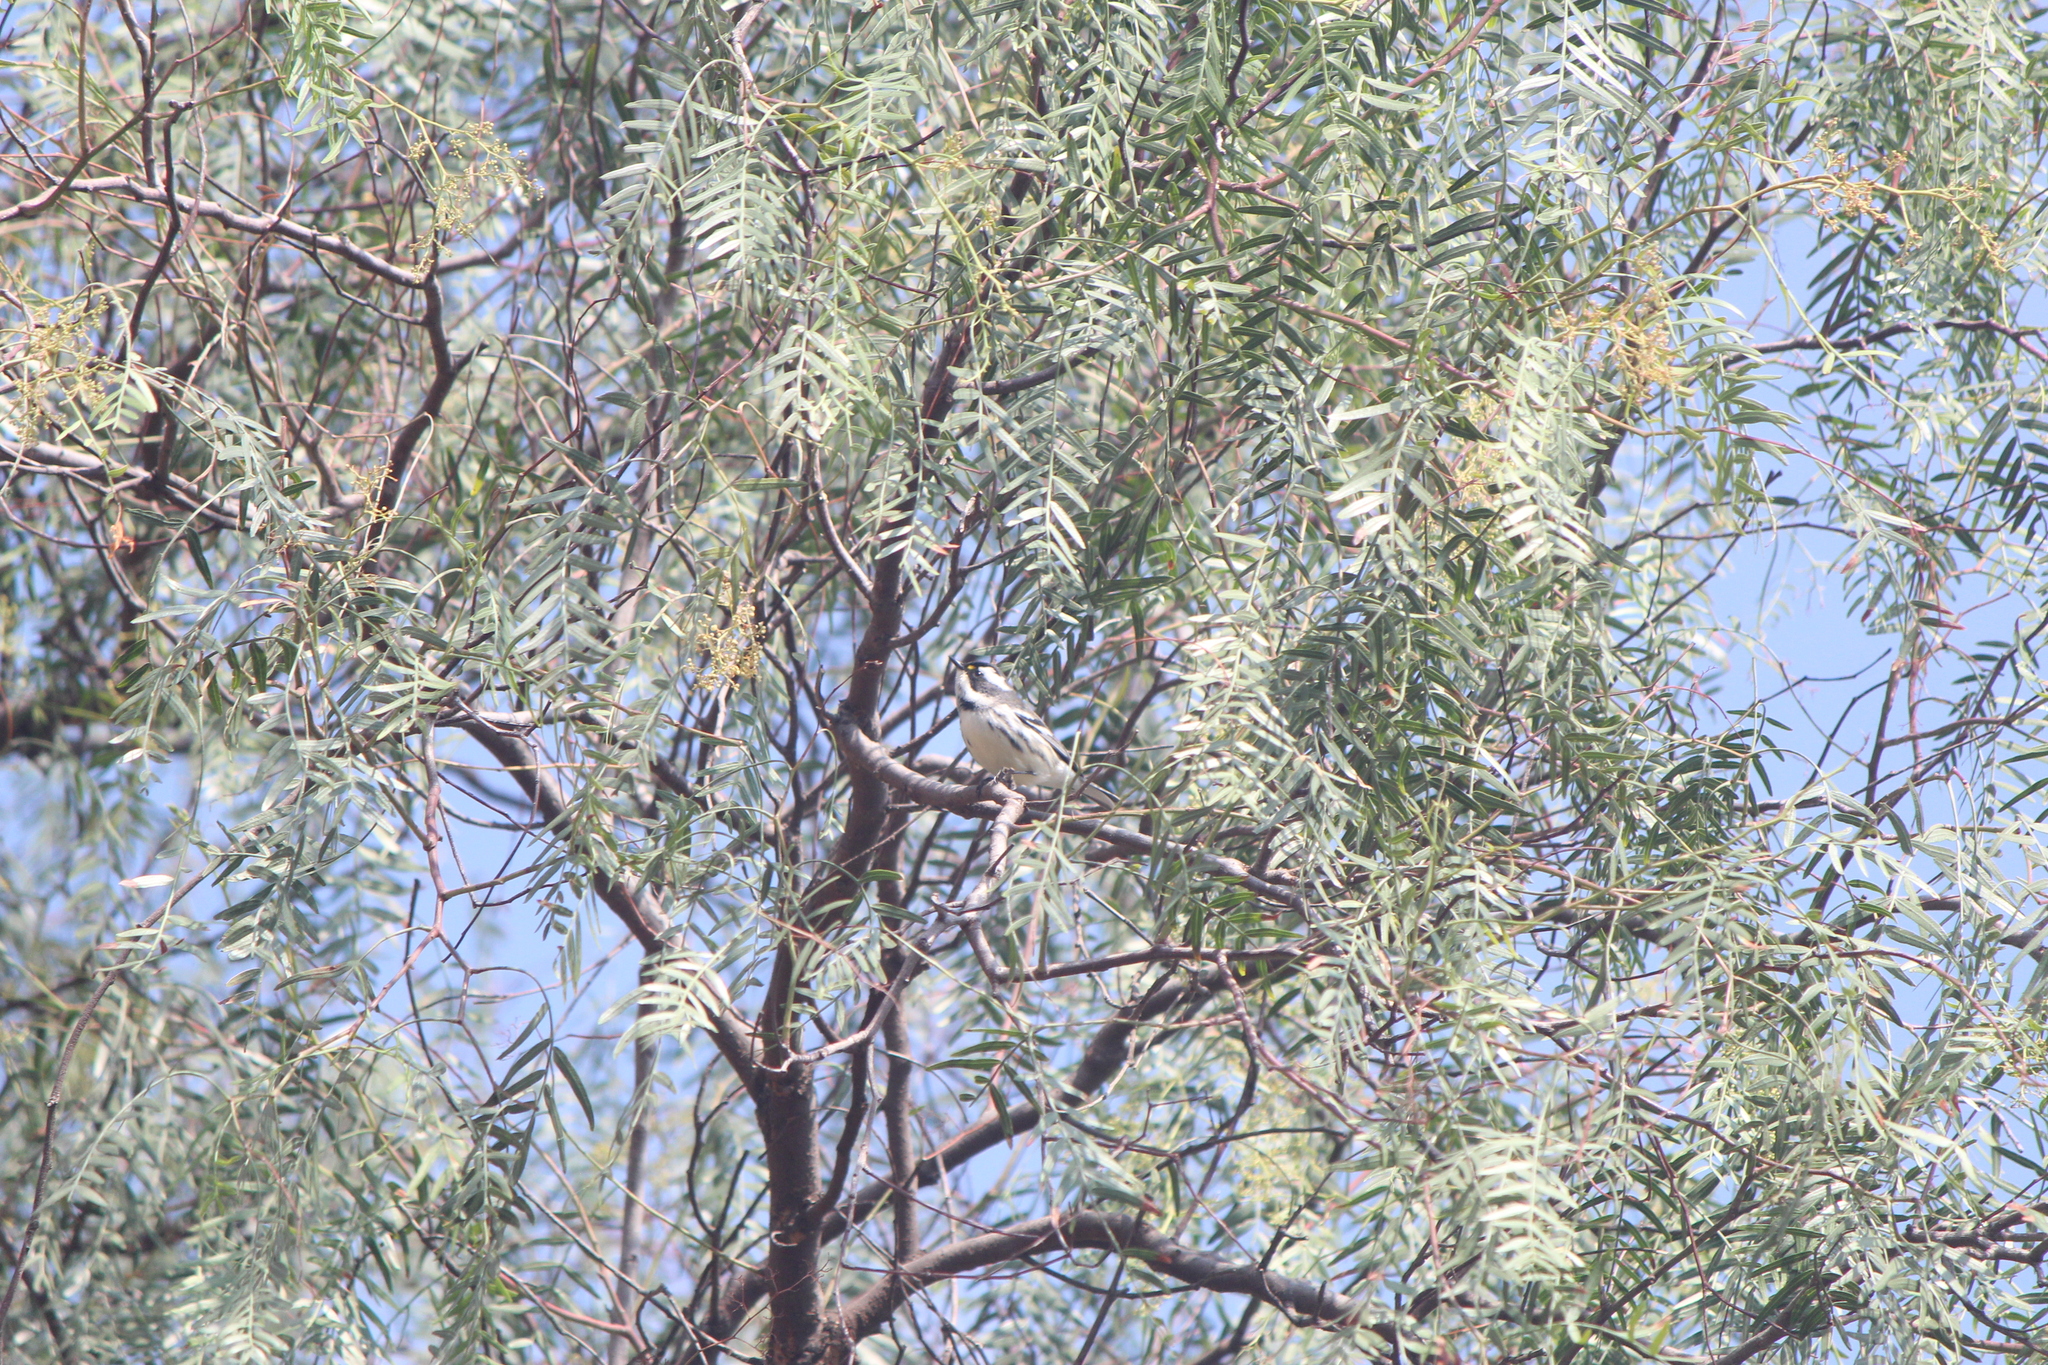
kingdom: Animalia
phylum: Chordata
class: Aves
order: Passeriformes
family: Parulidae
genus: Setophaga
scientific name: Setophaga nigrescens
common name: Black-throated gray warbler
